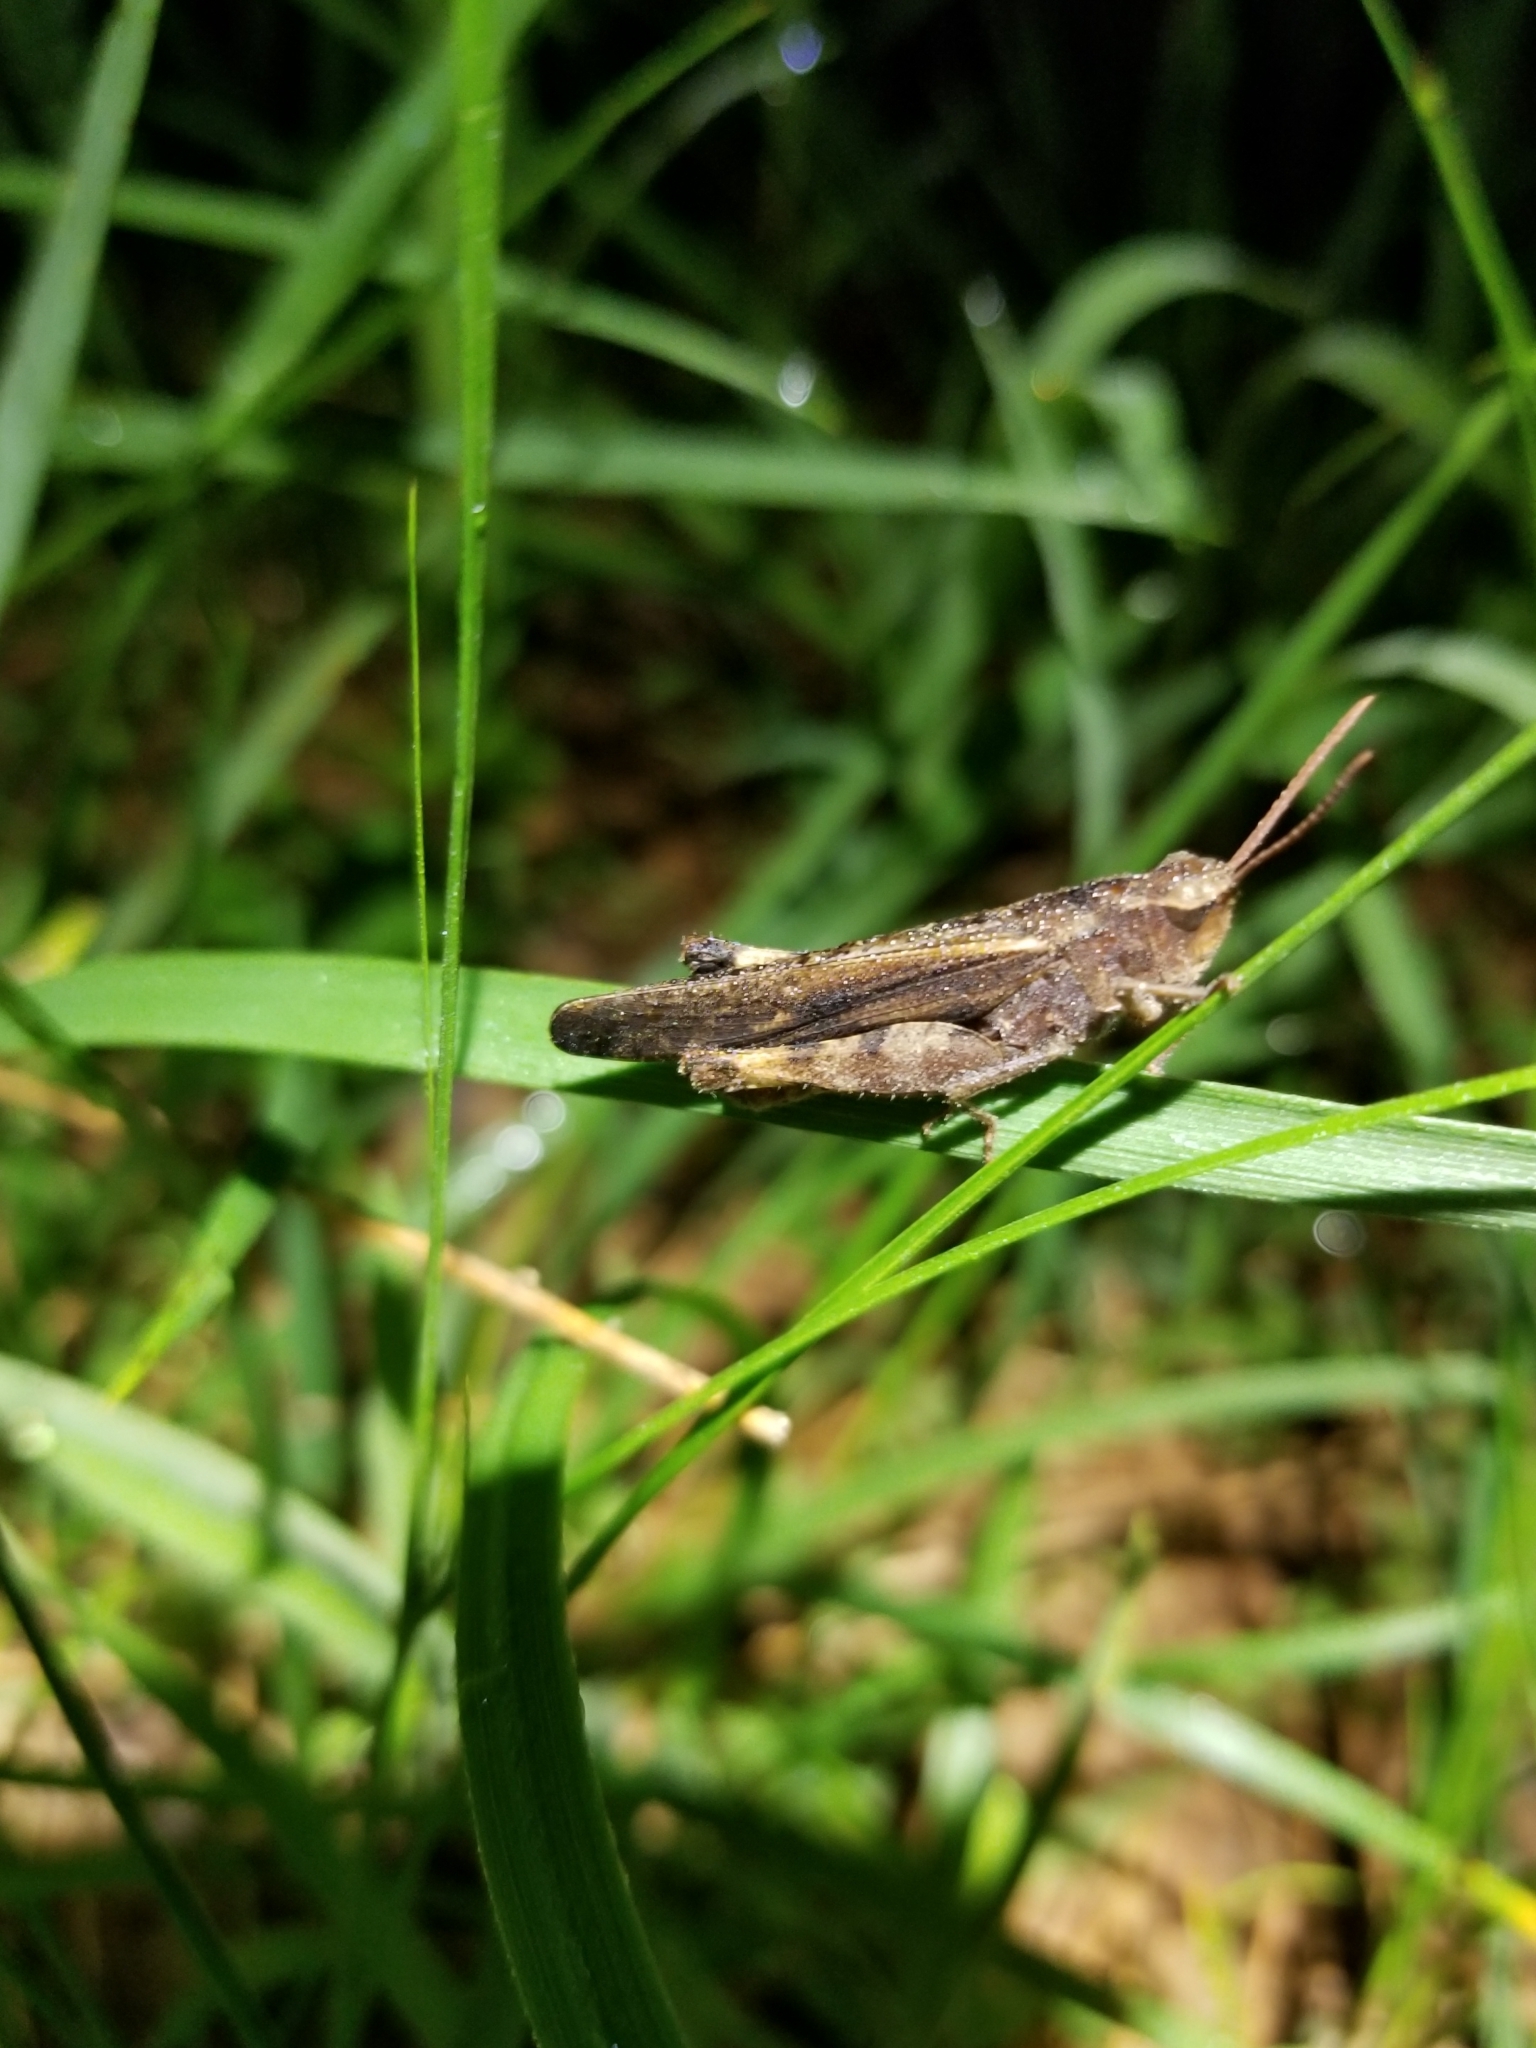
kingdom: Animalia
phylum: Arthropoda
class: Insecta
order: Orthoptera
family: Acrididae
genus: Chortophaga
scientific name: Chortophaga viridifasciata
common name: Green-striped grasshopper
